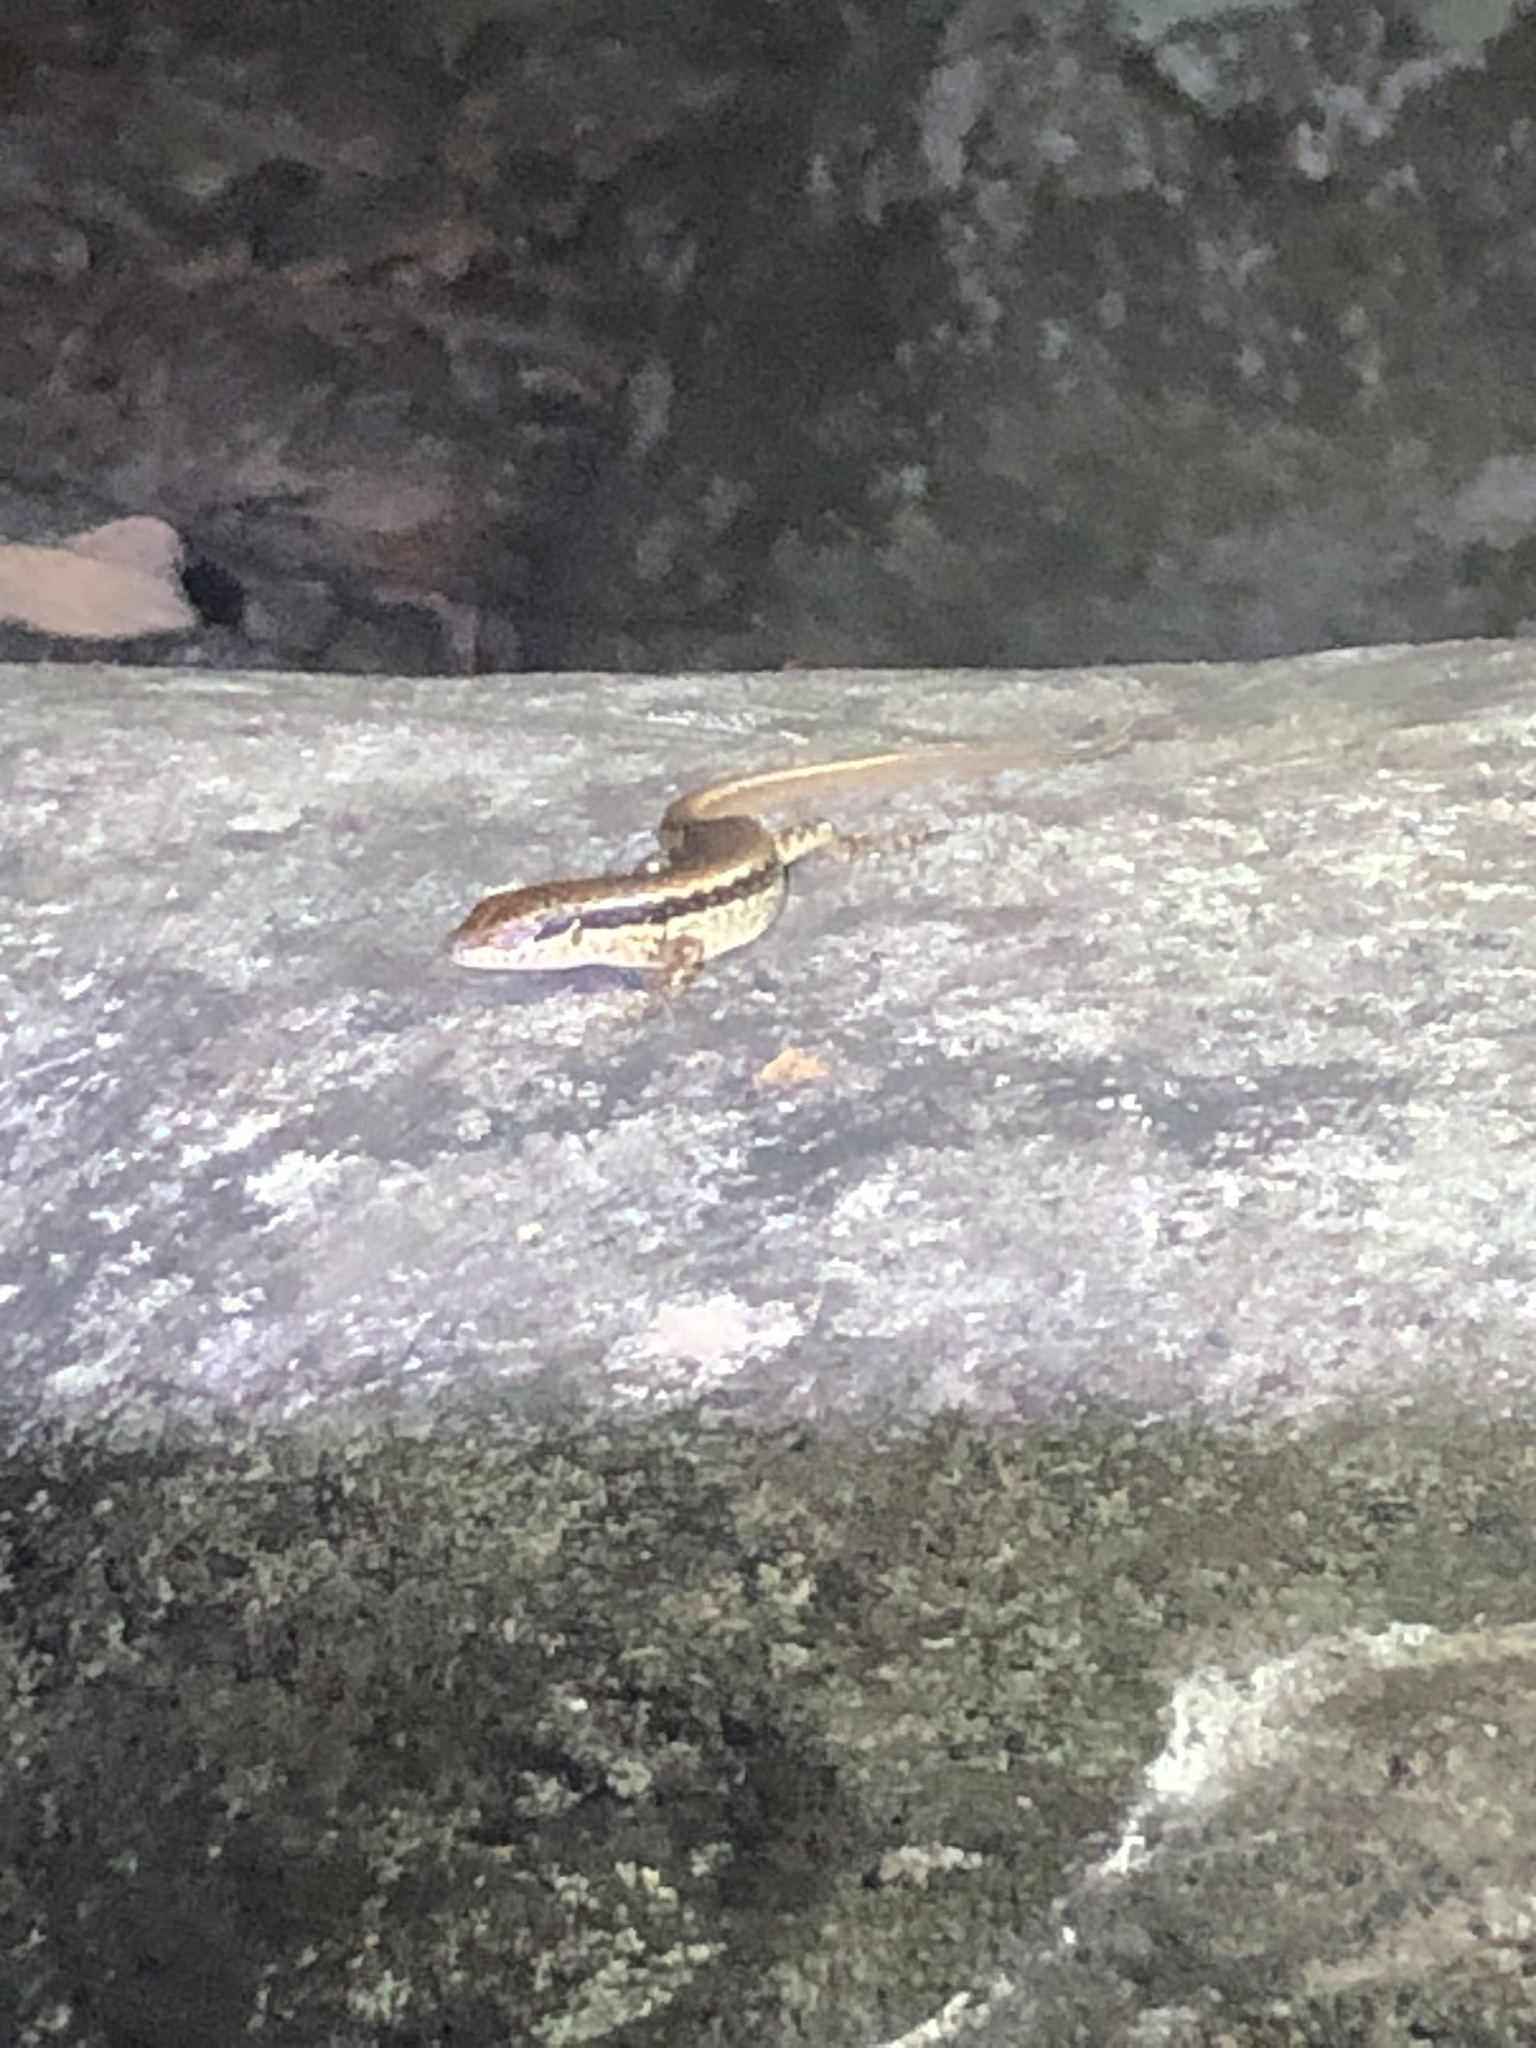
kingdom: Animalia
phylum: Chordata
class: Squamata
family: Scincidae
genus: Sphenomorphus
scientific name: Sphenomorphus incognitus
